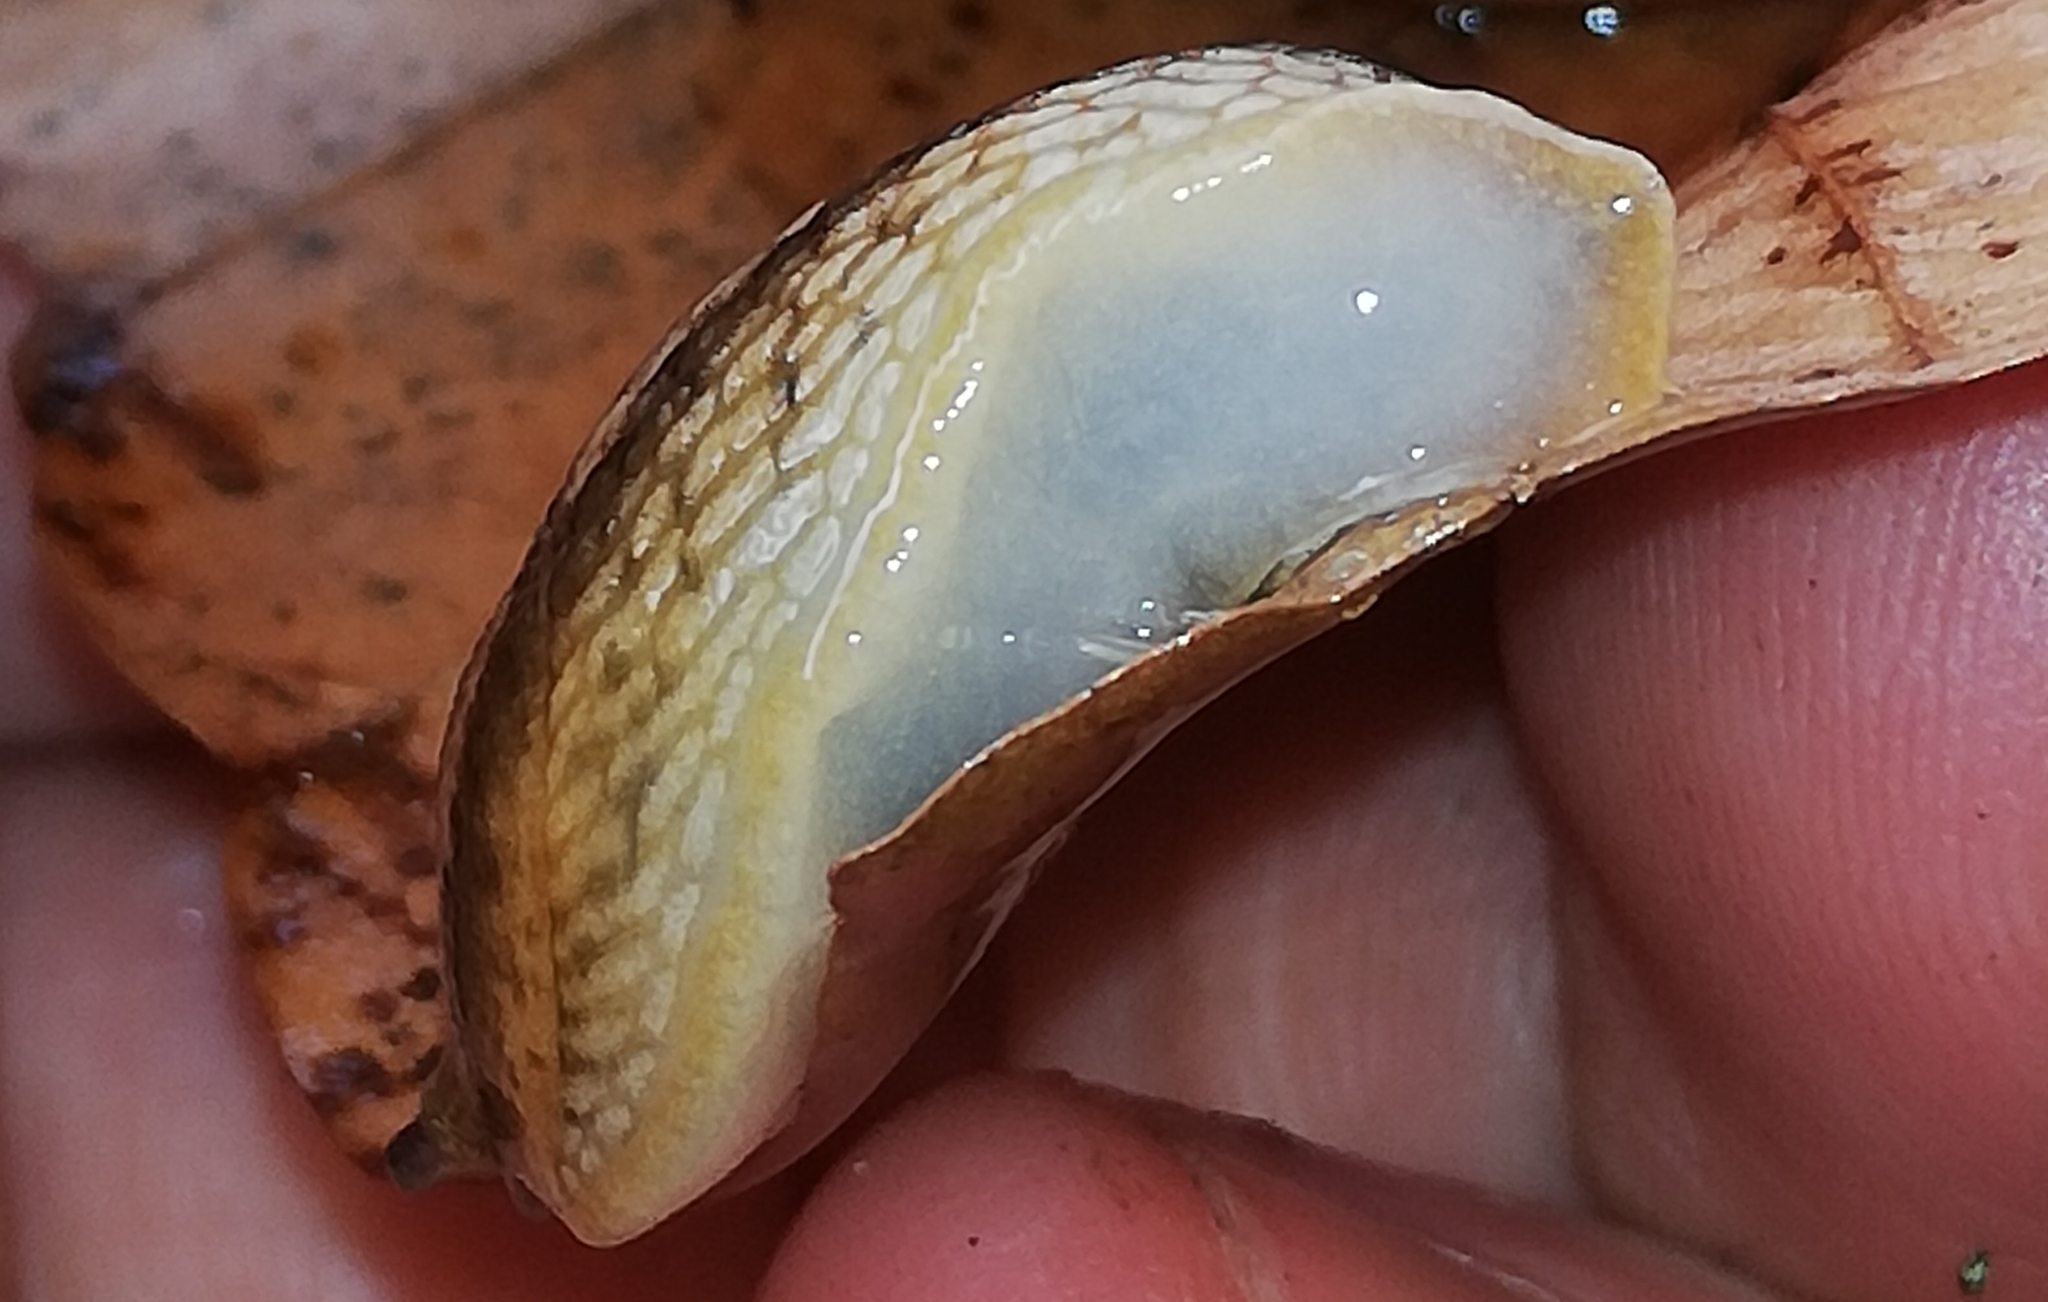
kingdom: Animalia
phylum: Mollusca
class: Gastropoda
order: Stylommatophora
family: Arionidae
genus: Arion
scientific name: Arion fuscus
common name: Northern dusky slug
